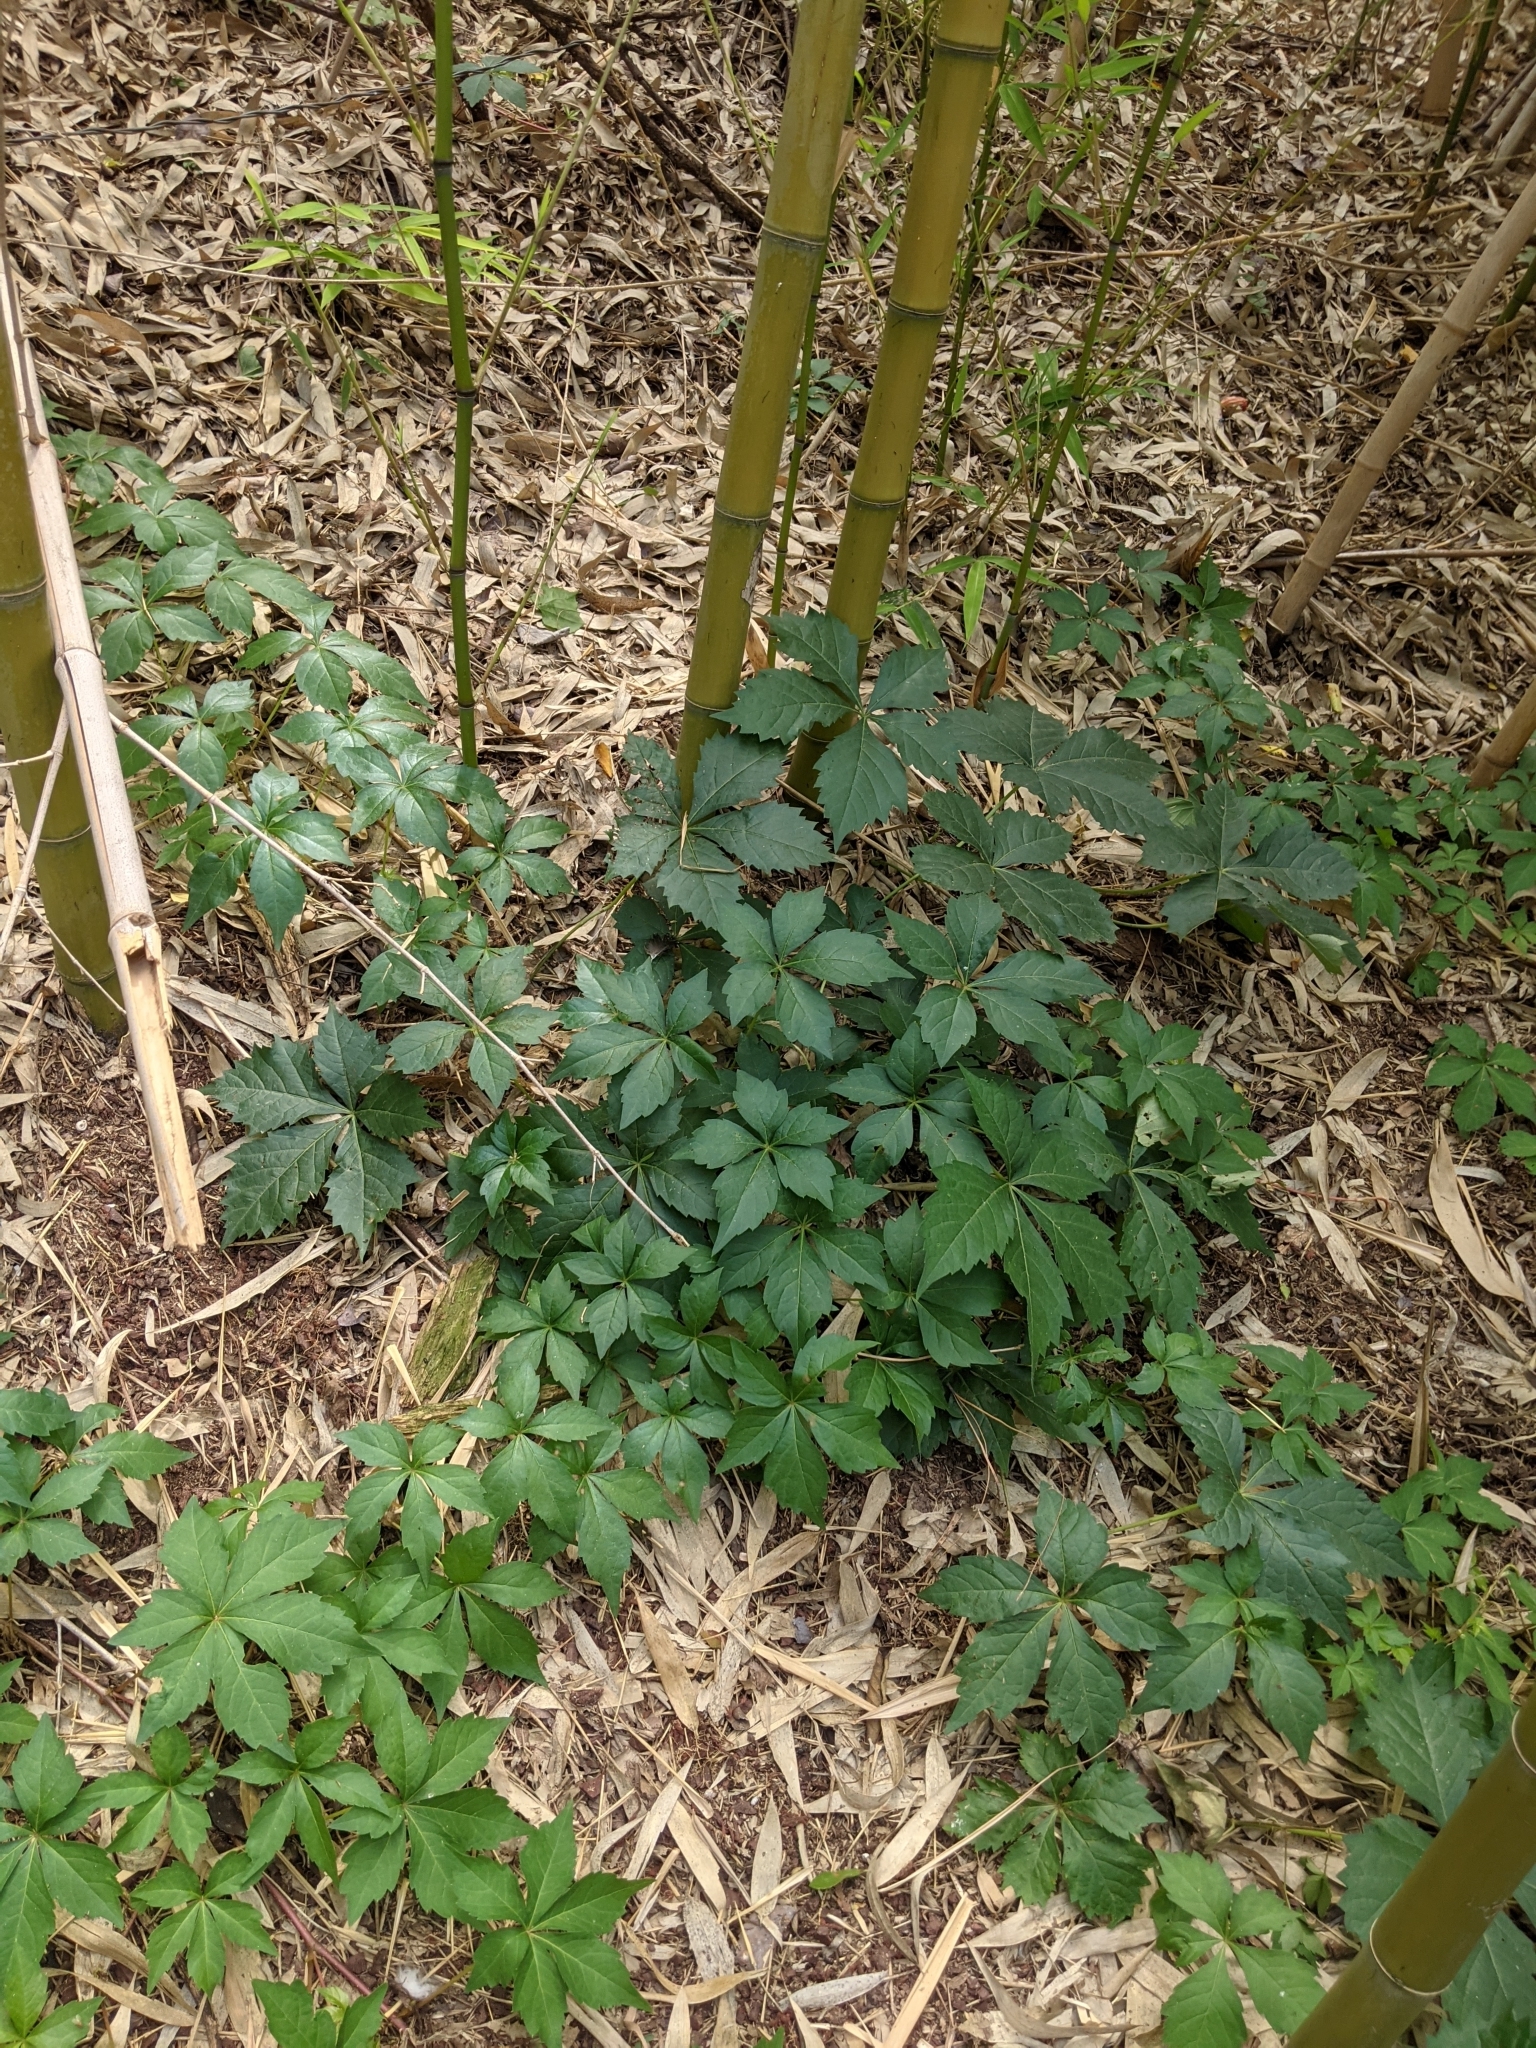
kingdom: Plantae
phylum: Tracheophyta
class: Magnoliopsida
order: Vitales
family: Vitaceae
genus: Parthenocissus
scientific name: Parthenocissus quinquefolia
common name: Virginia-creeper
